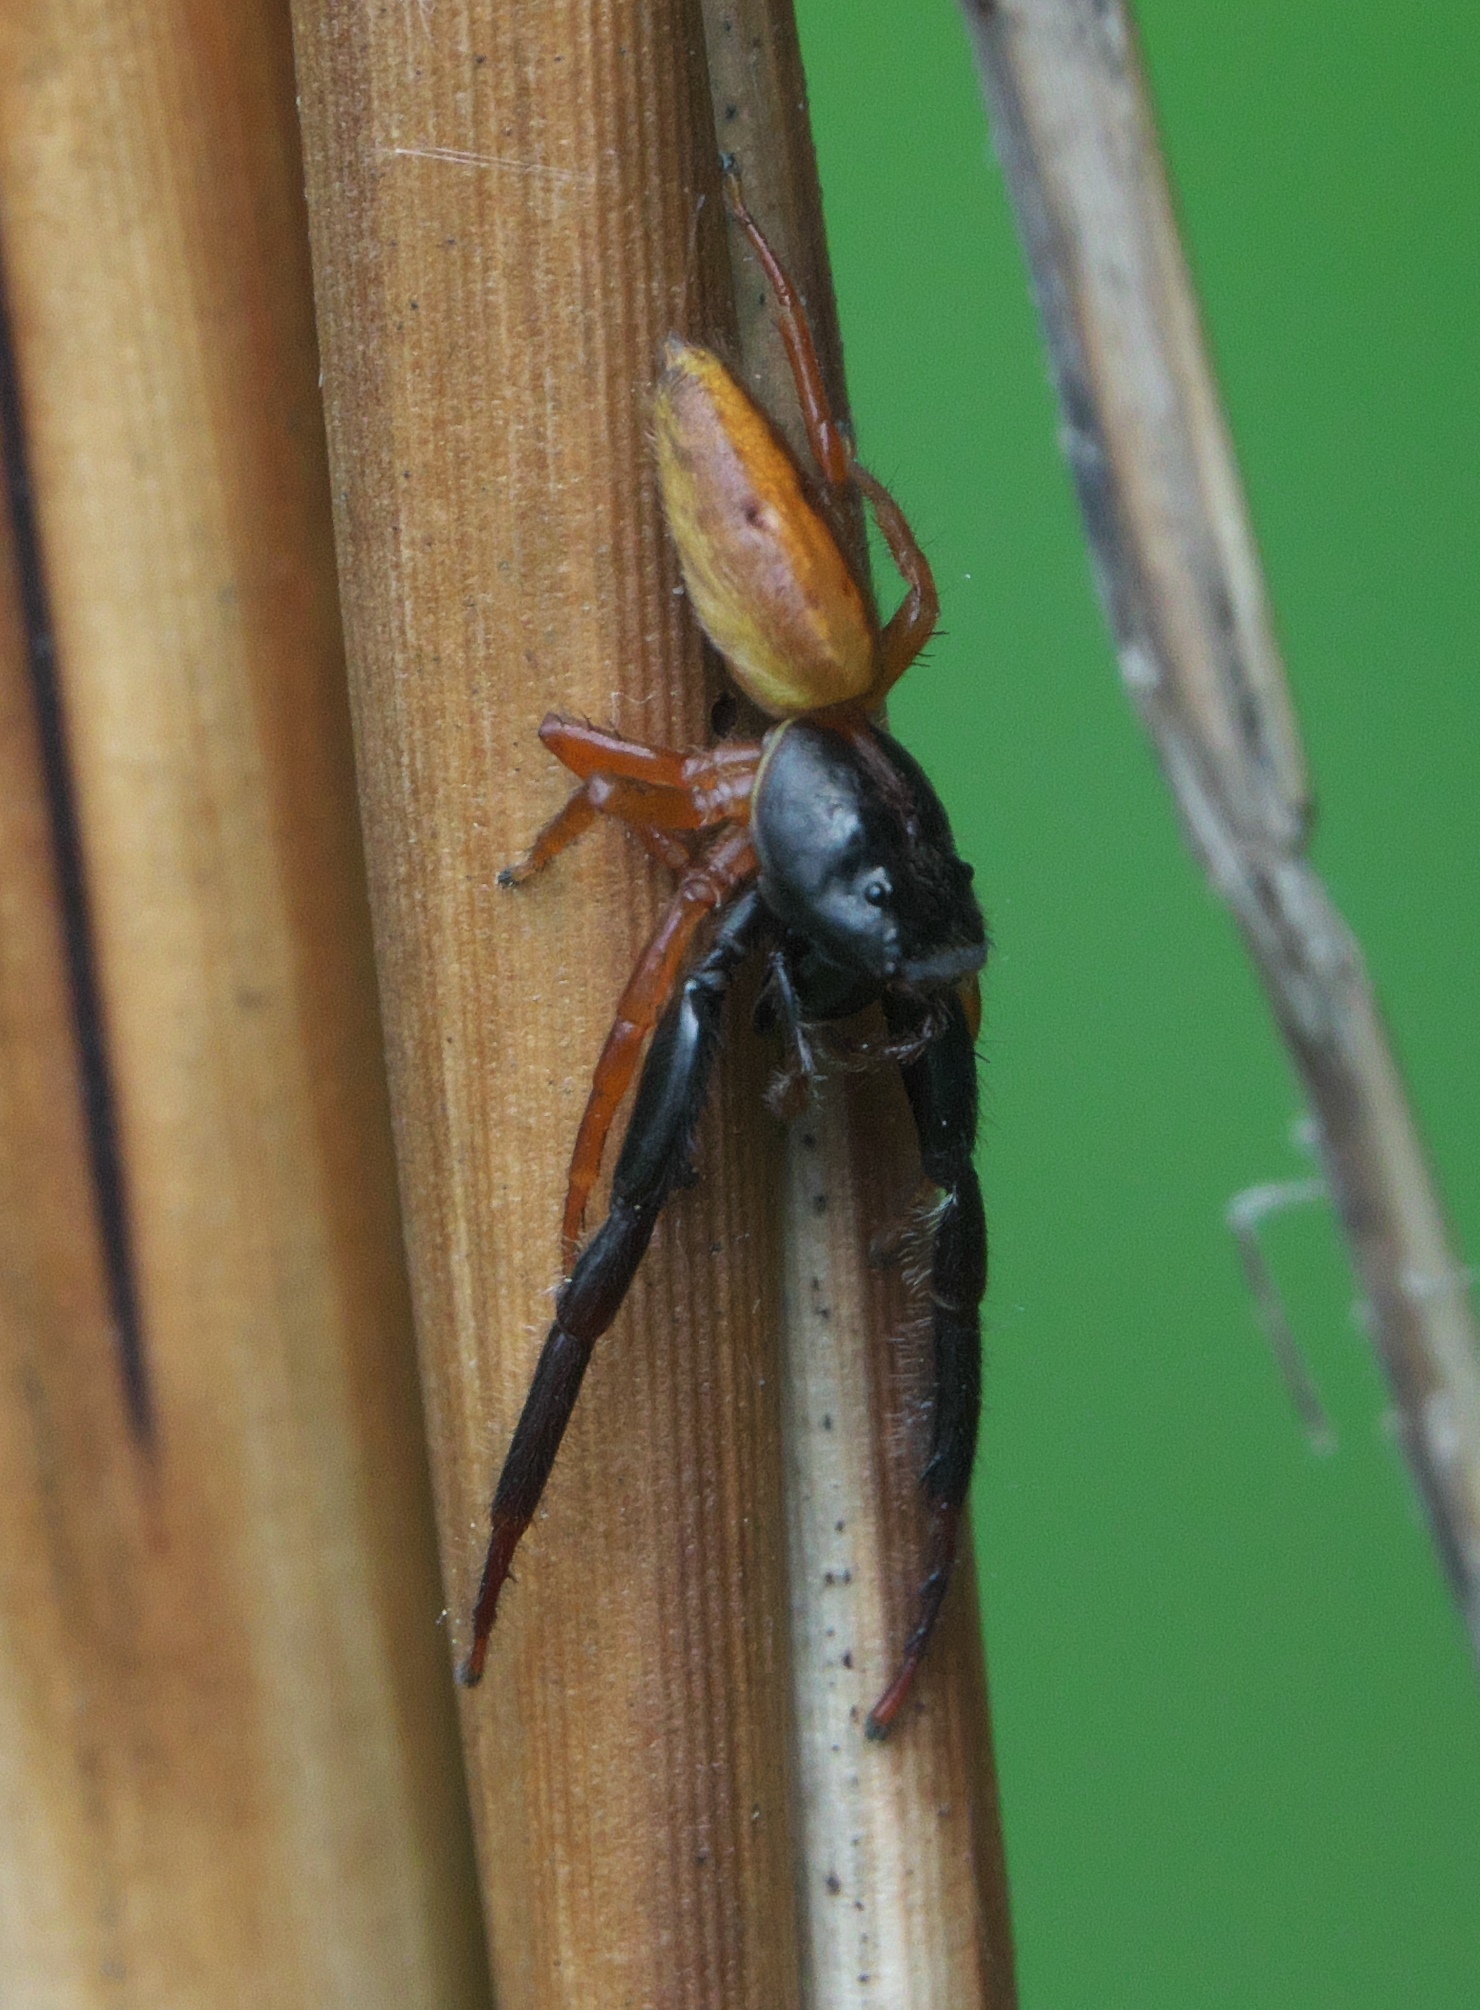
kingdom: Animalia
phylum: Arthropoda
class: Arachnida
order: Araneae
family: Salticidae
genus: Trite
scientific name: Trite planiceps
